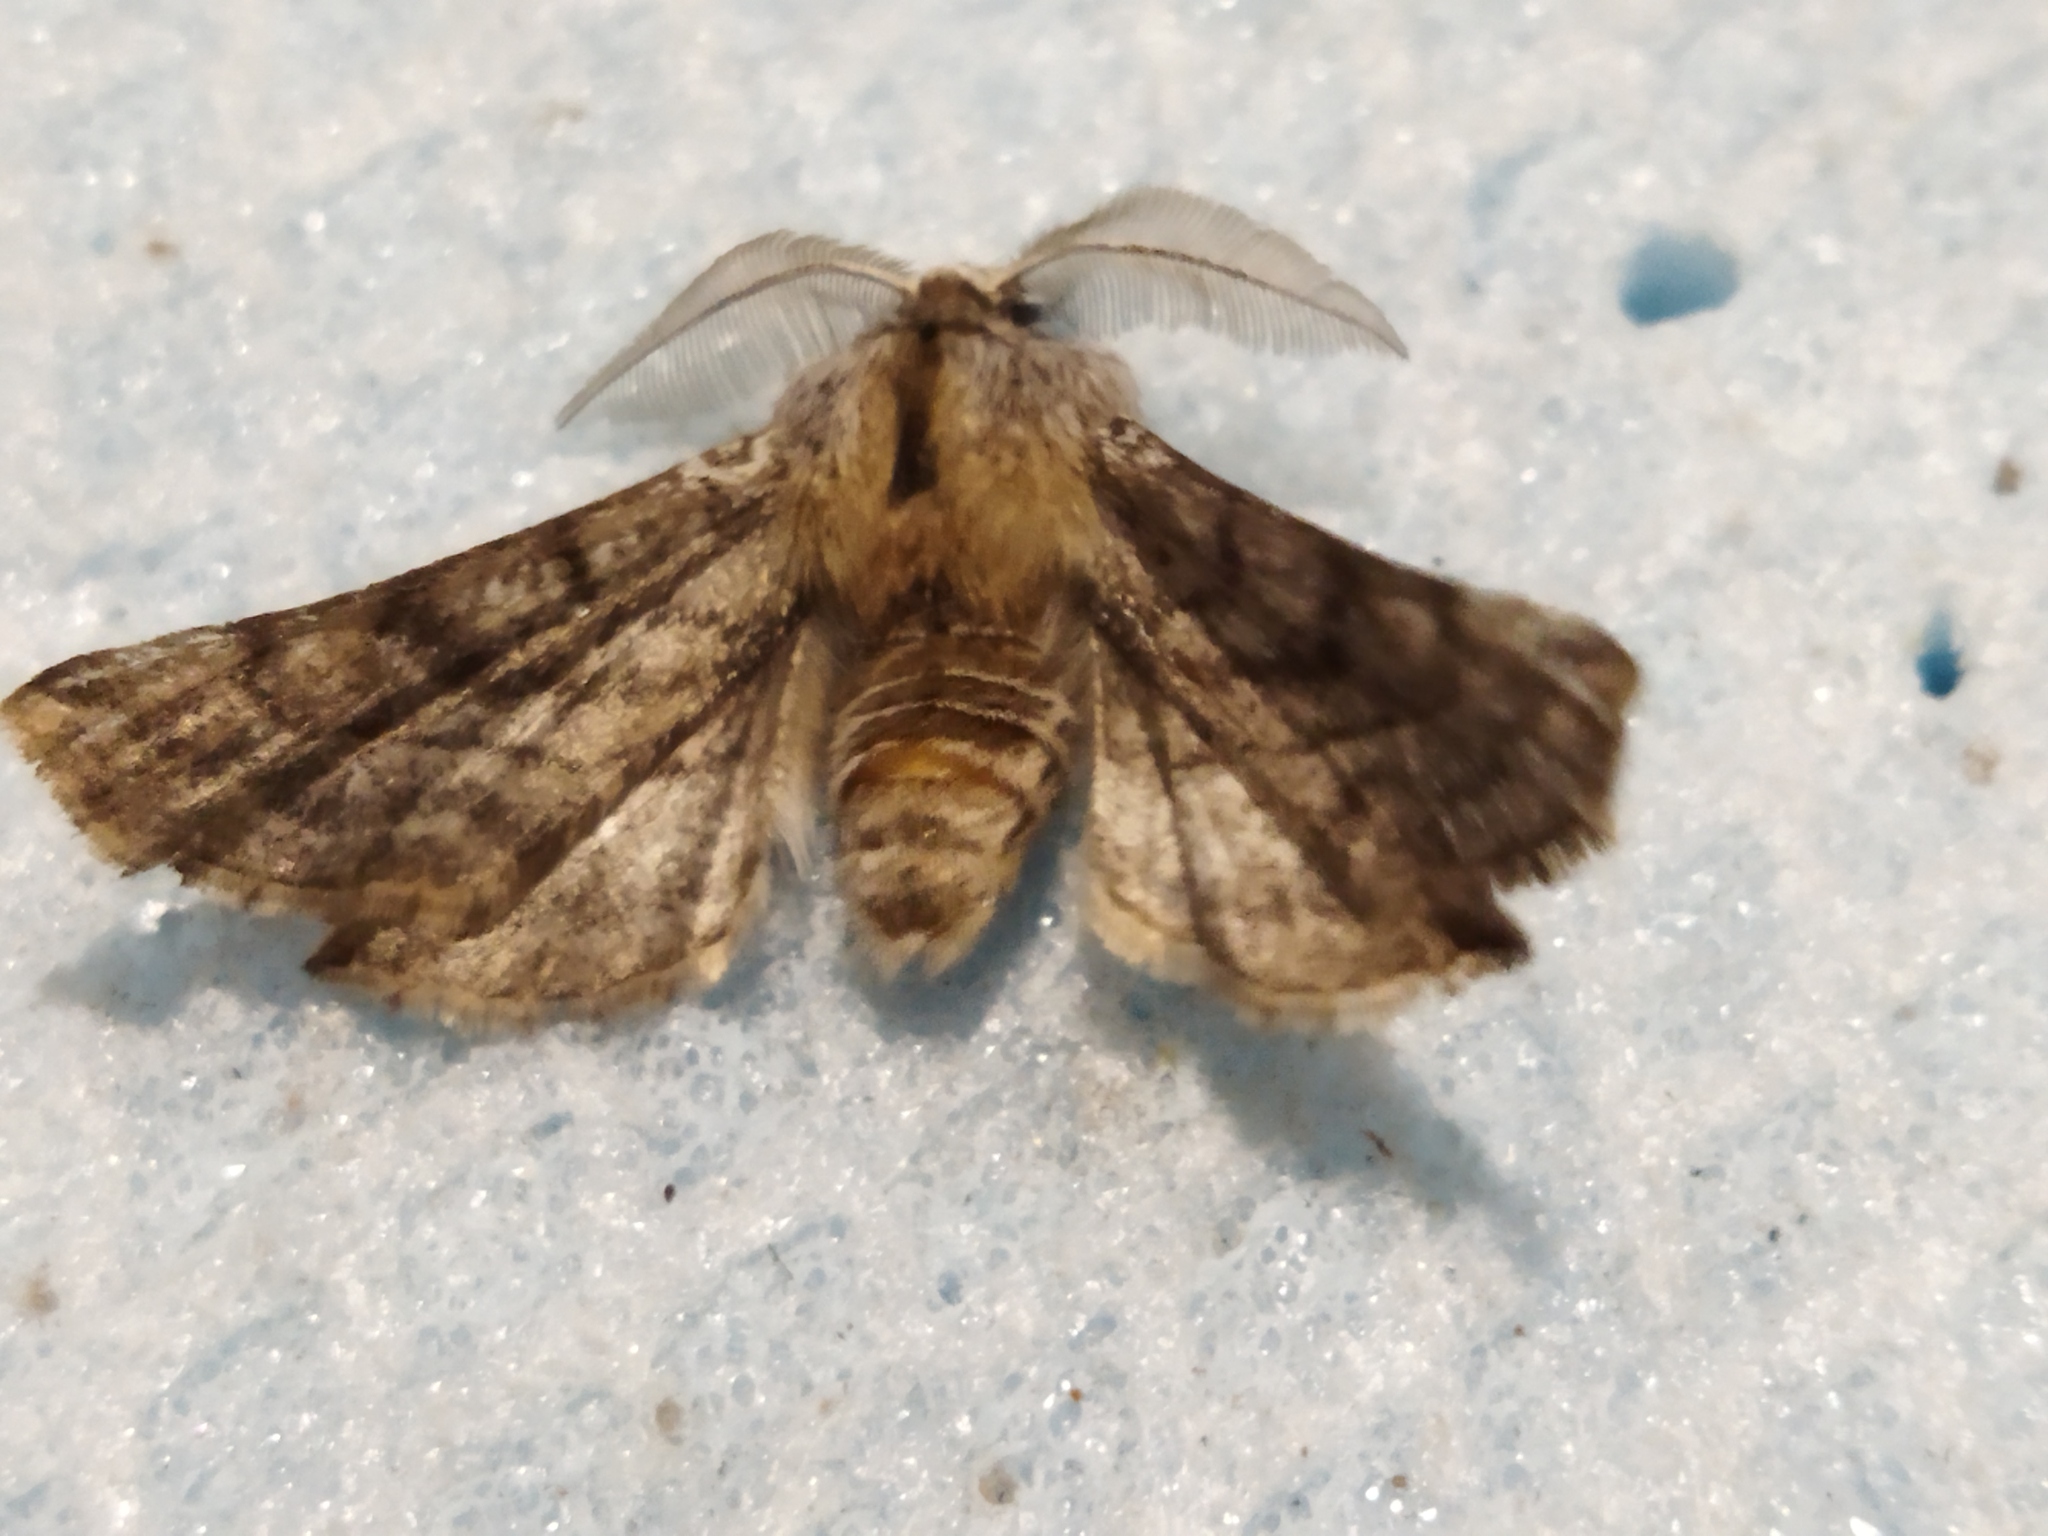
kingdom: Animalia
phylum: Arthropoda
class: Insecta
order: Lepidoptera
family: Geometridae
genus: Apochima
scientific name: Apochima flabellaria
